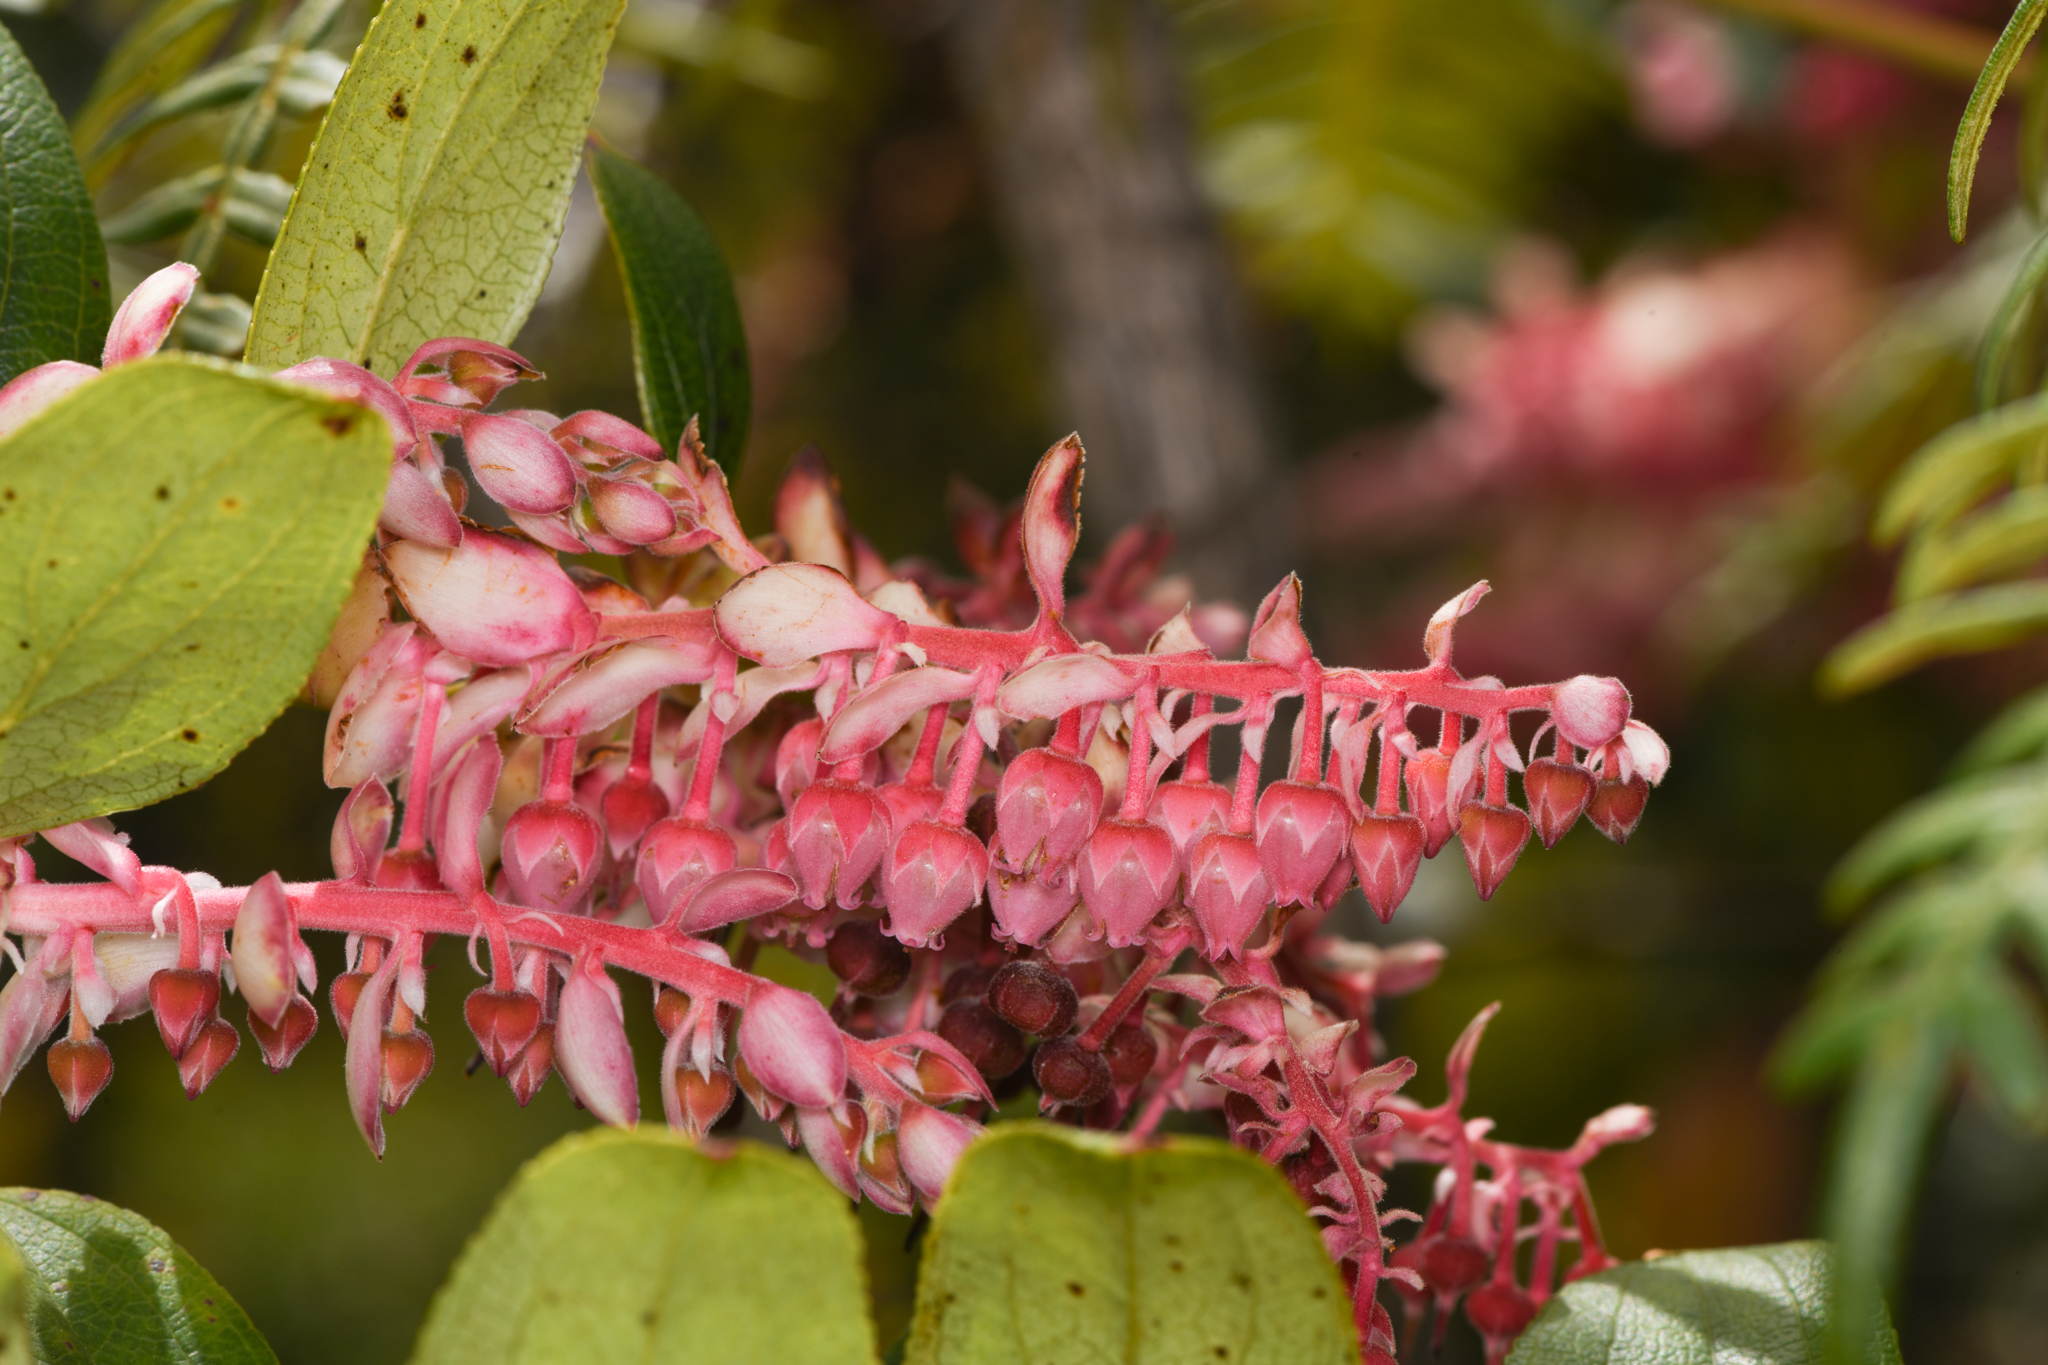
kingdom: Plantae
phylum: Tracheophyta
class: Magnoliopsida
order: Ericales
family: Ericaceae
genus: Gaultheria
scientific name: Gaultheria erecta
